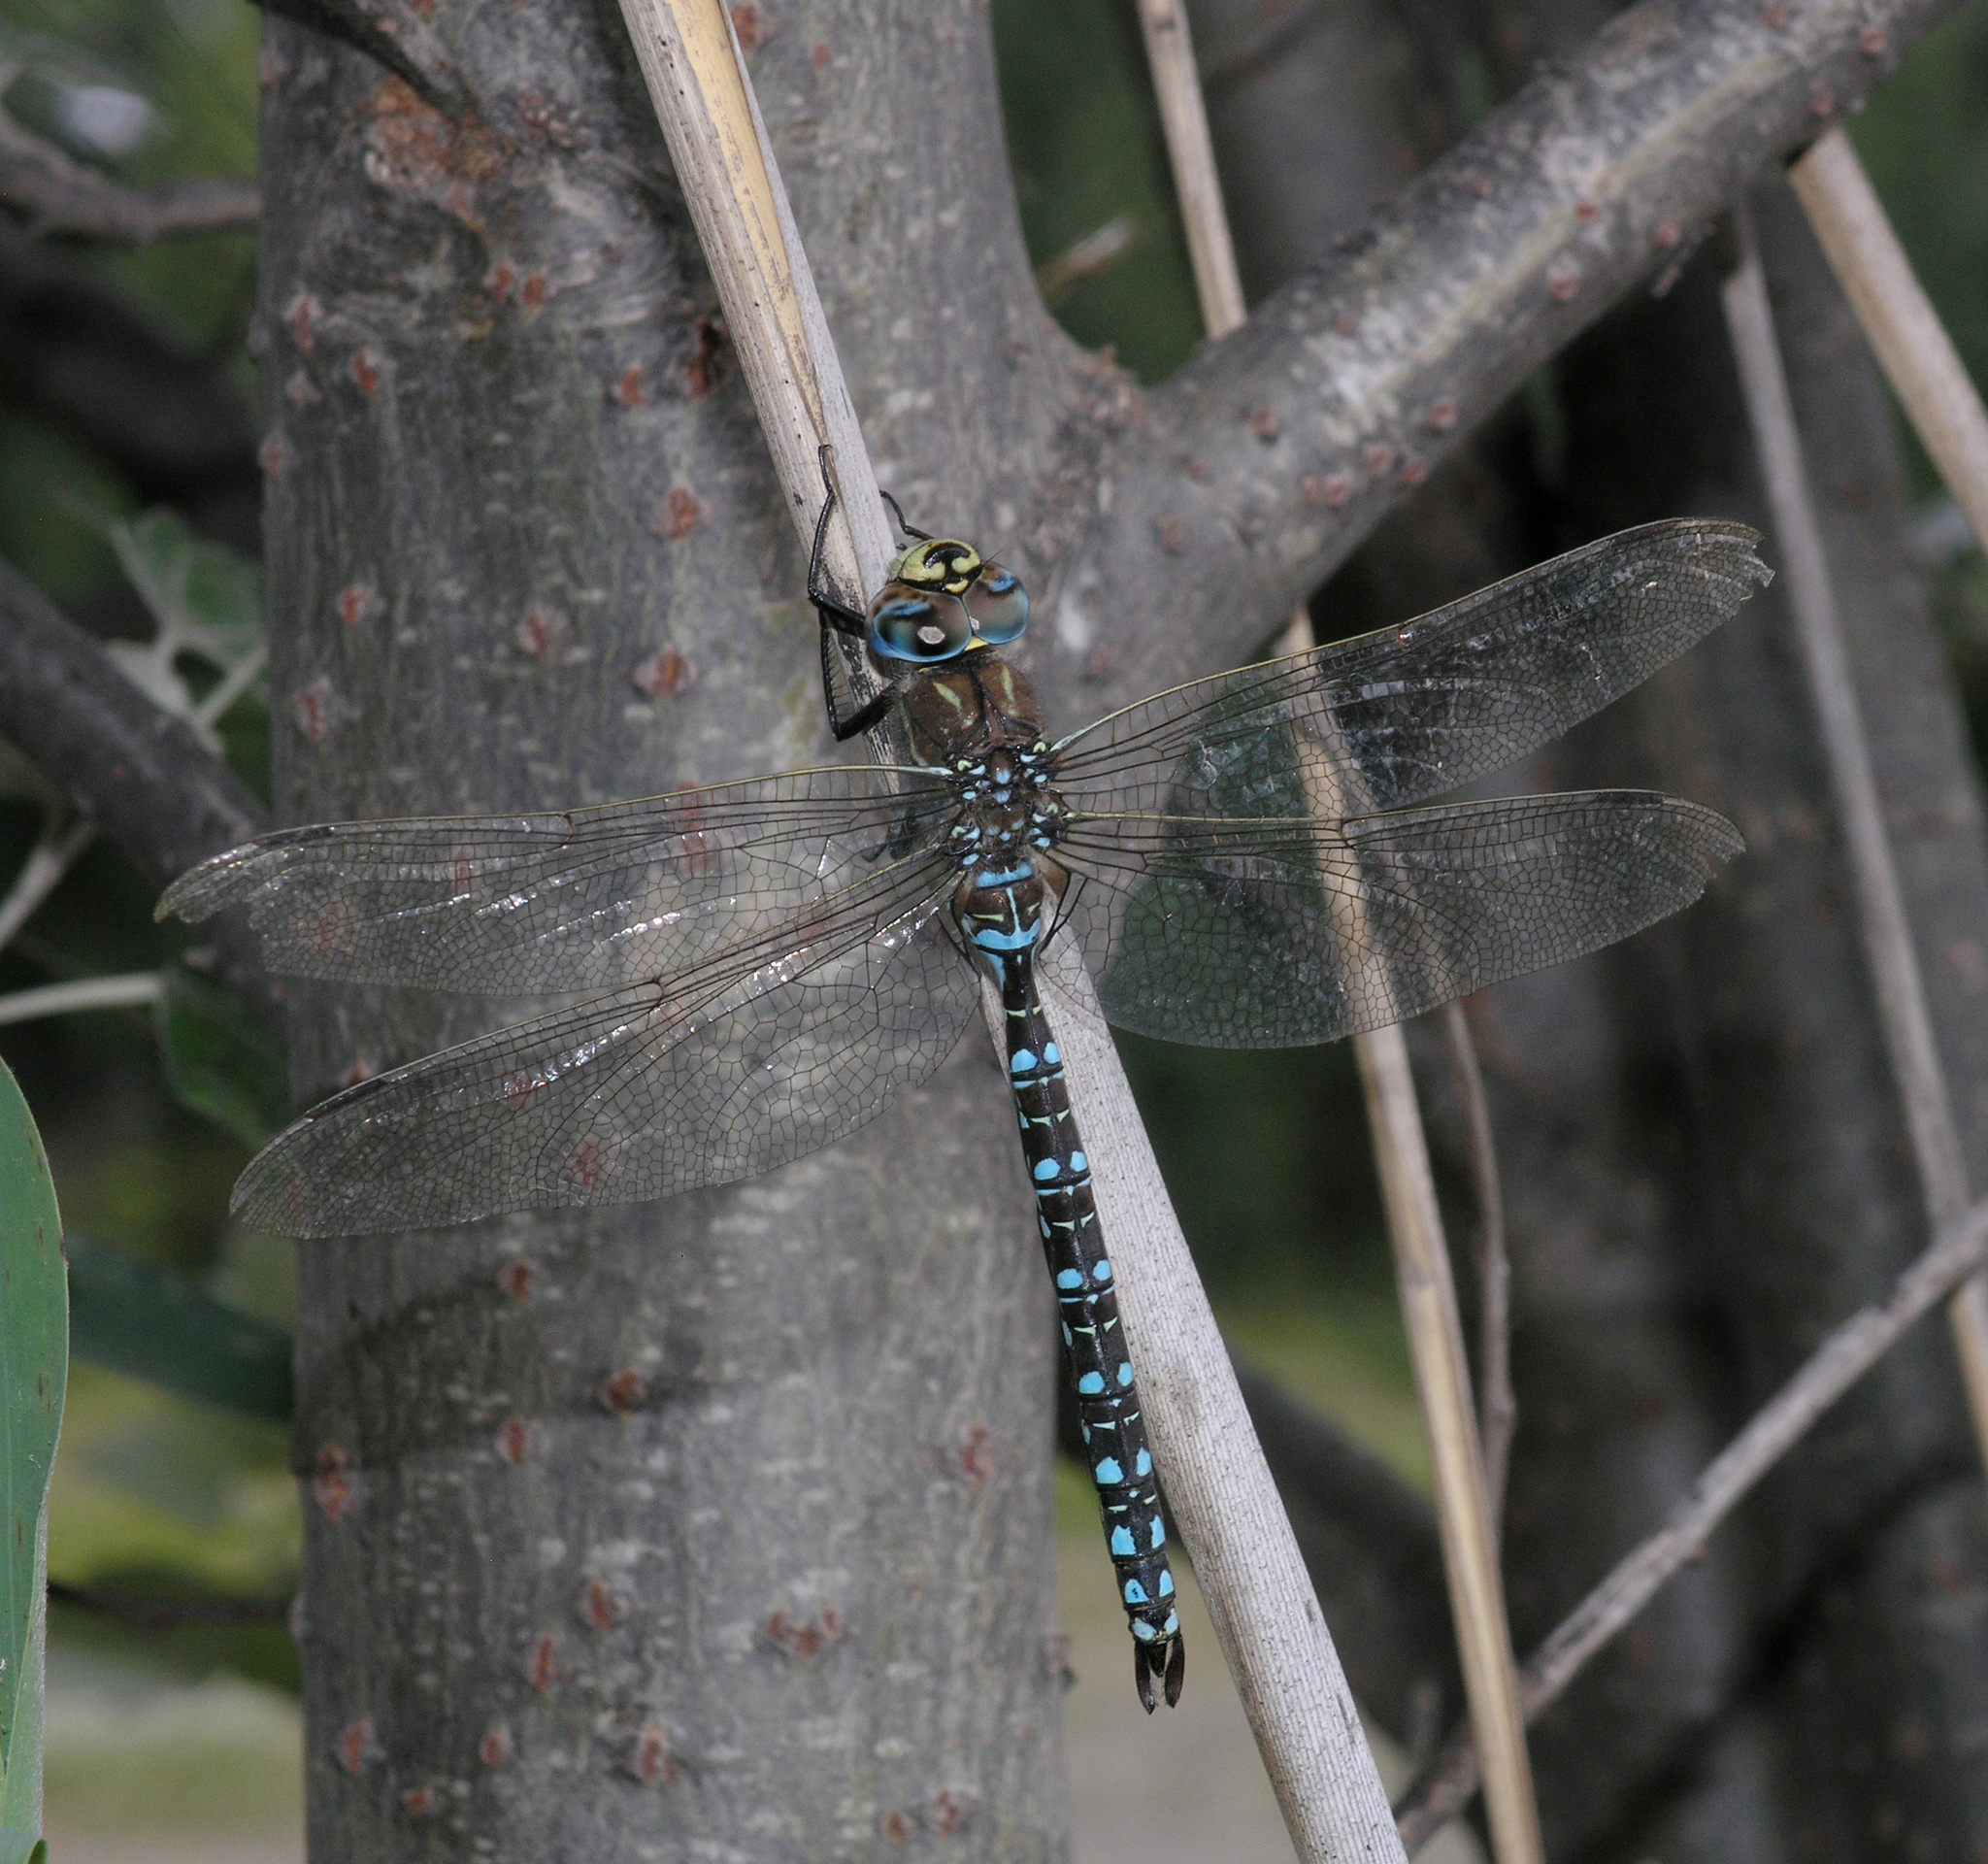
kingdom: Animalia
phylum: Arthropoda
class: Insecta
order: Odonata
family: Aeshnidae
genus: Aeshna
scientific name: Aeshna juncea
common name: Moorland hawker
